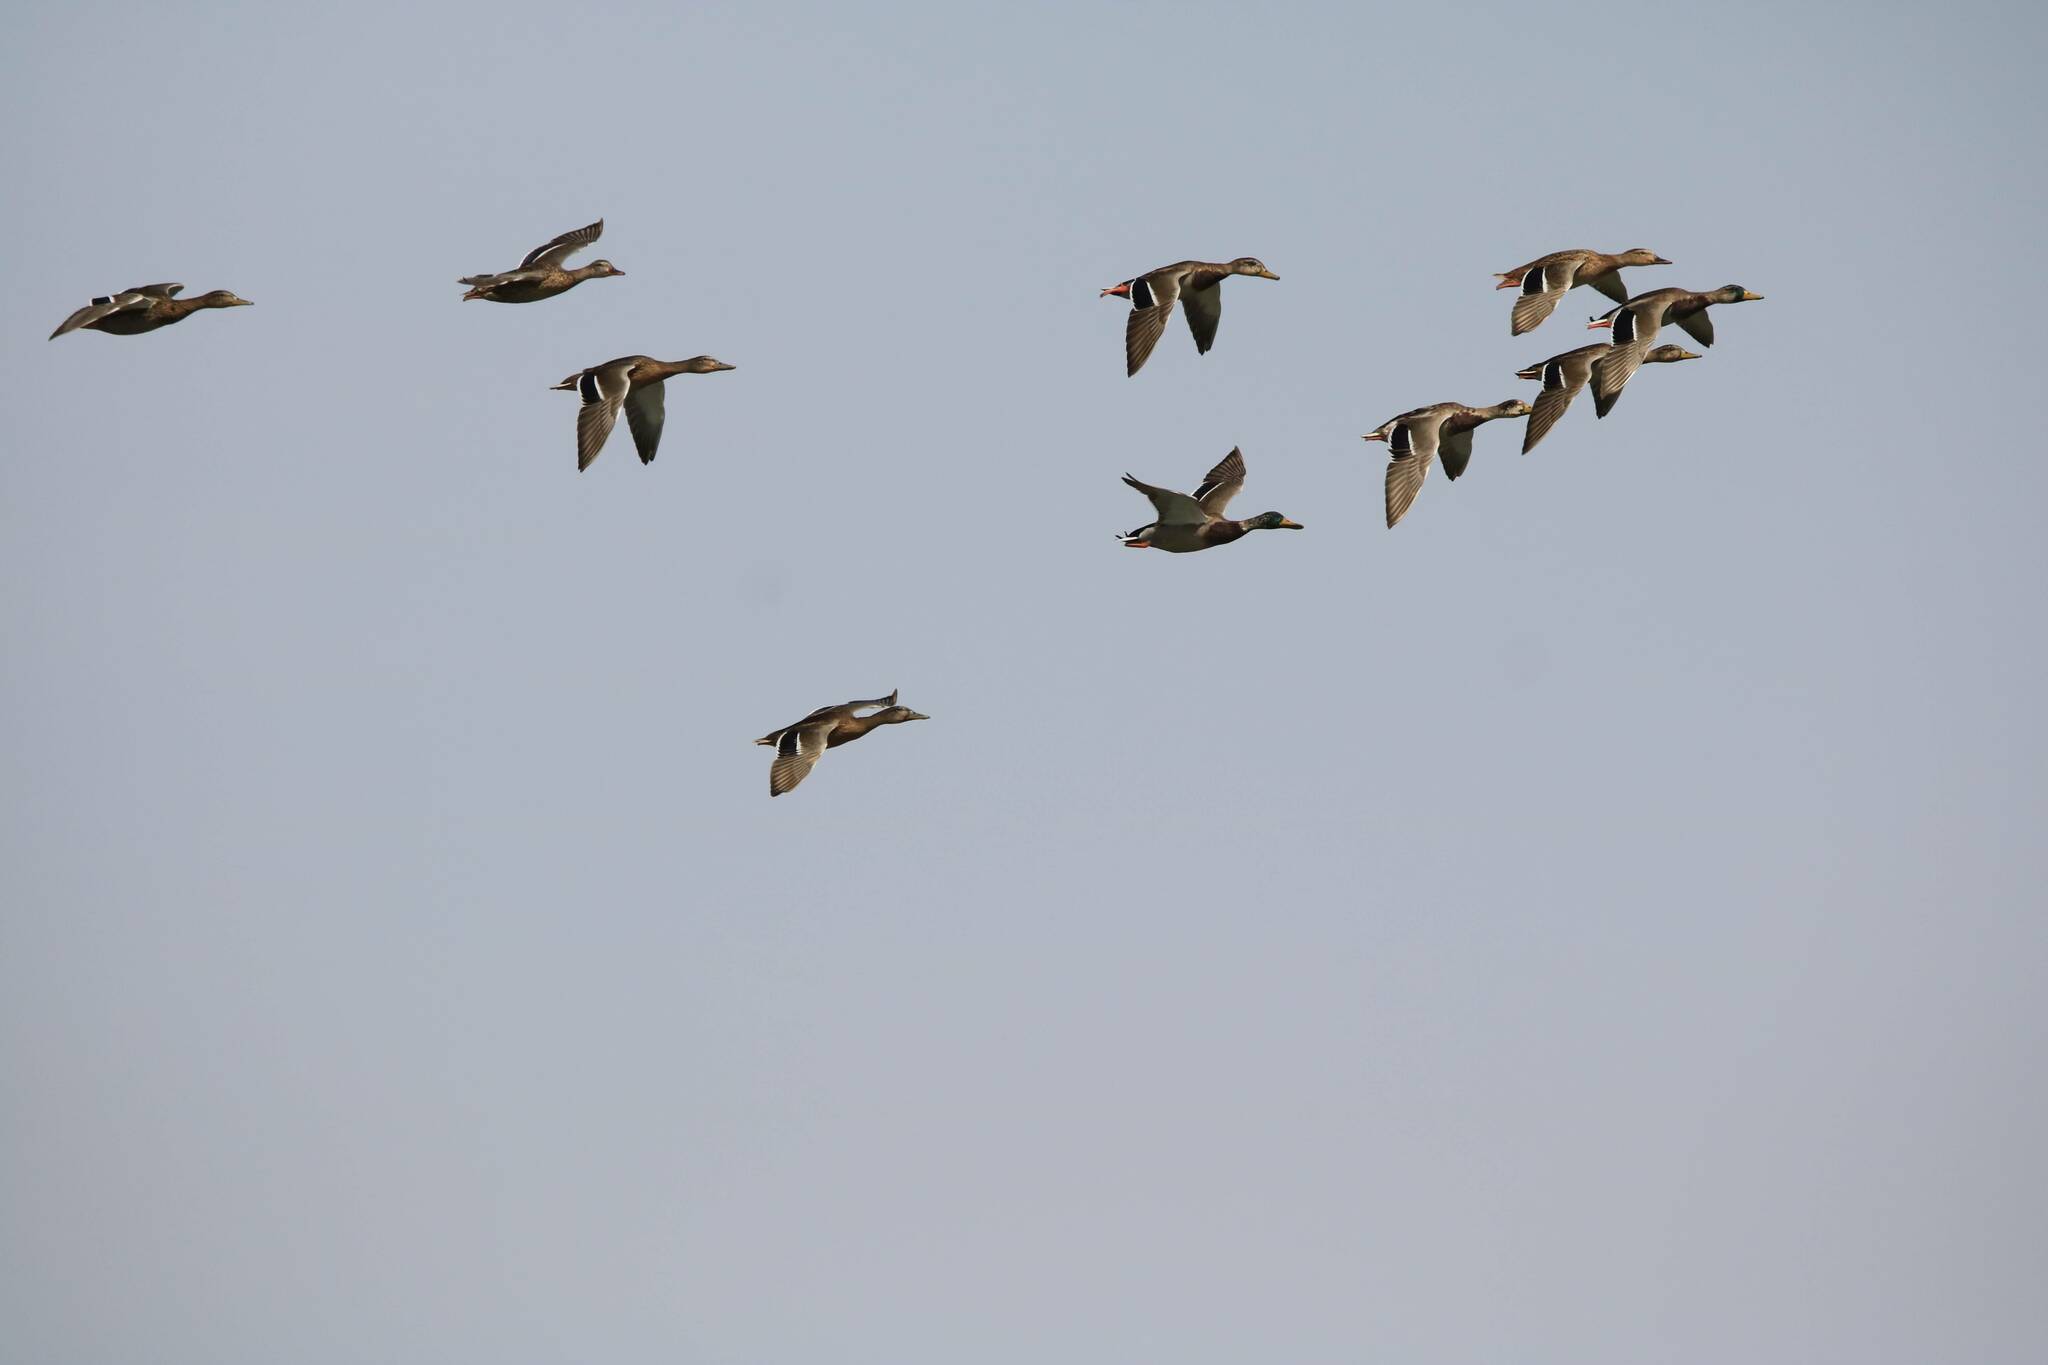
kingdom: Animalia
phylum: Chordata
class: Aves
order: Anseriformes
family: Anatidae
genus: Anas
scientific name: Anas platyrhynchos
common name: Mallard
